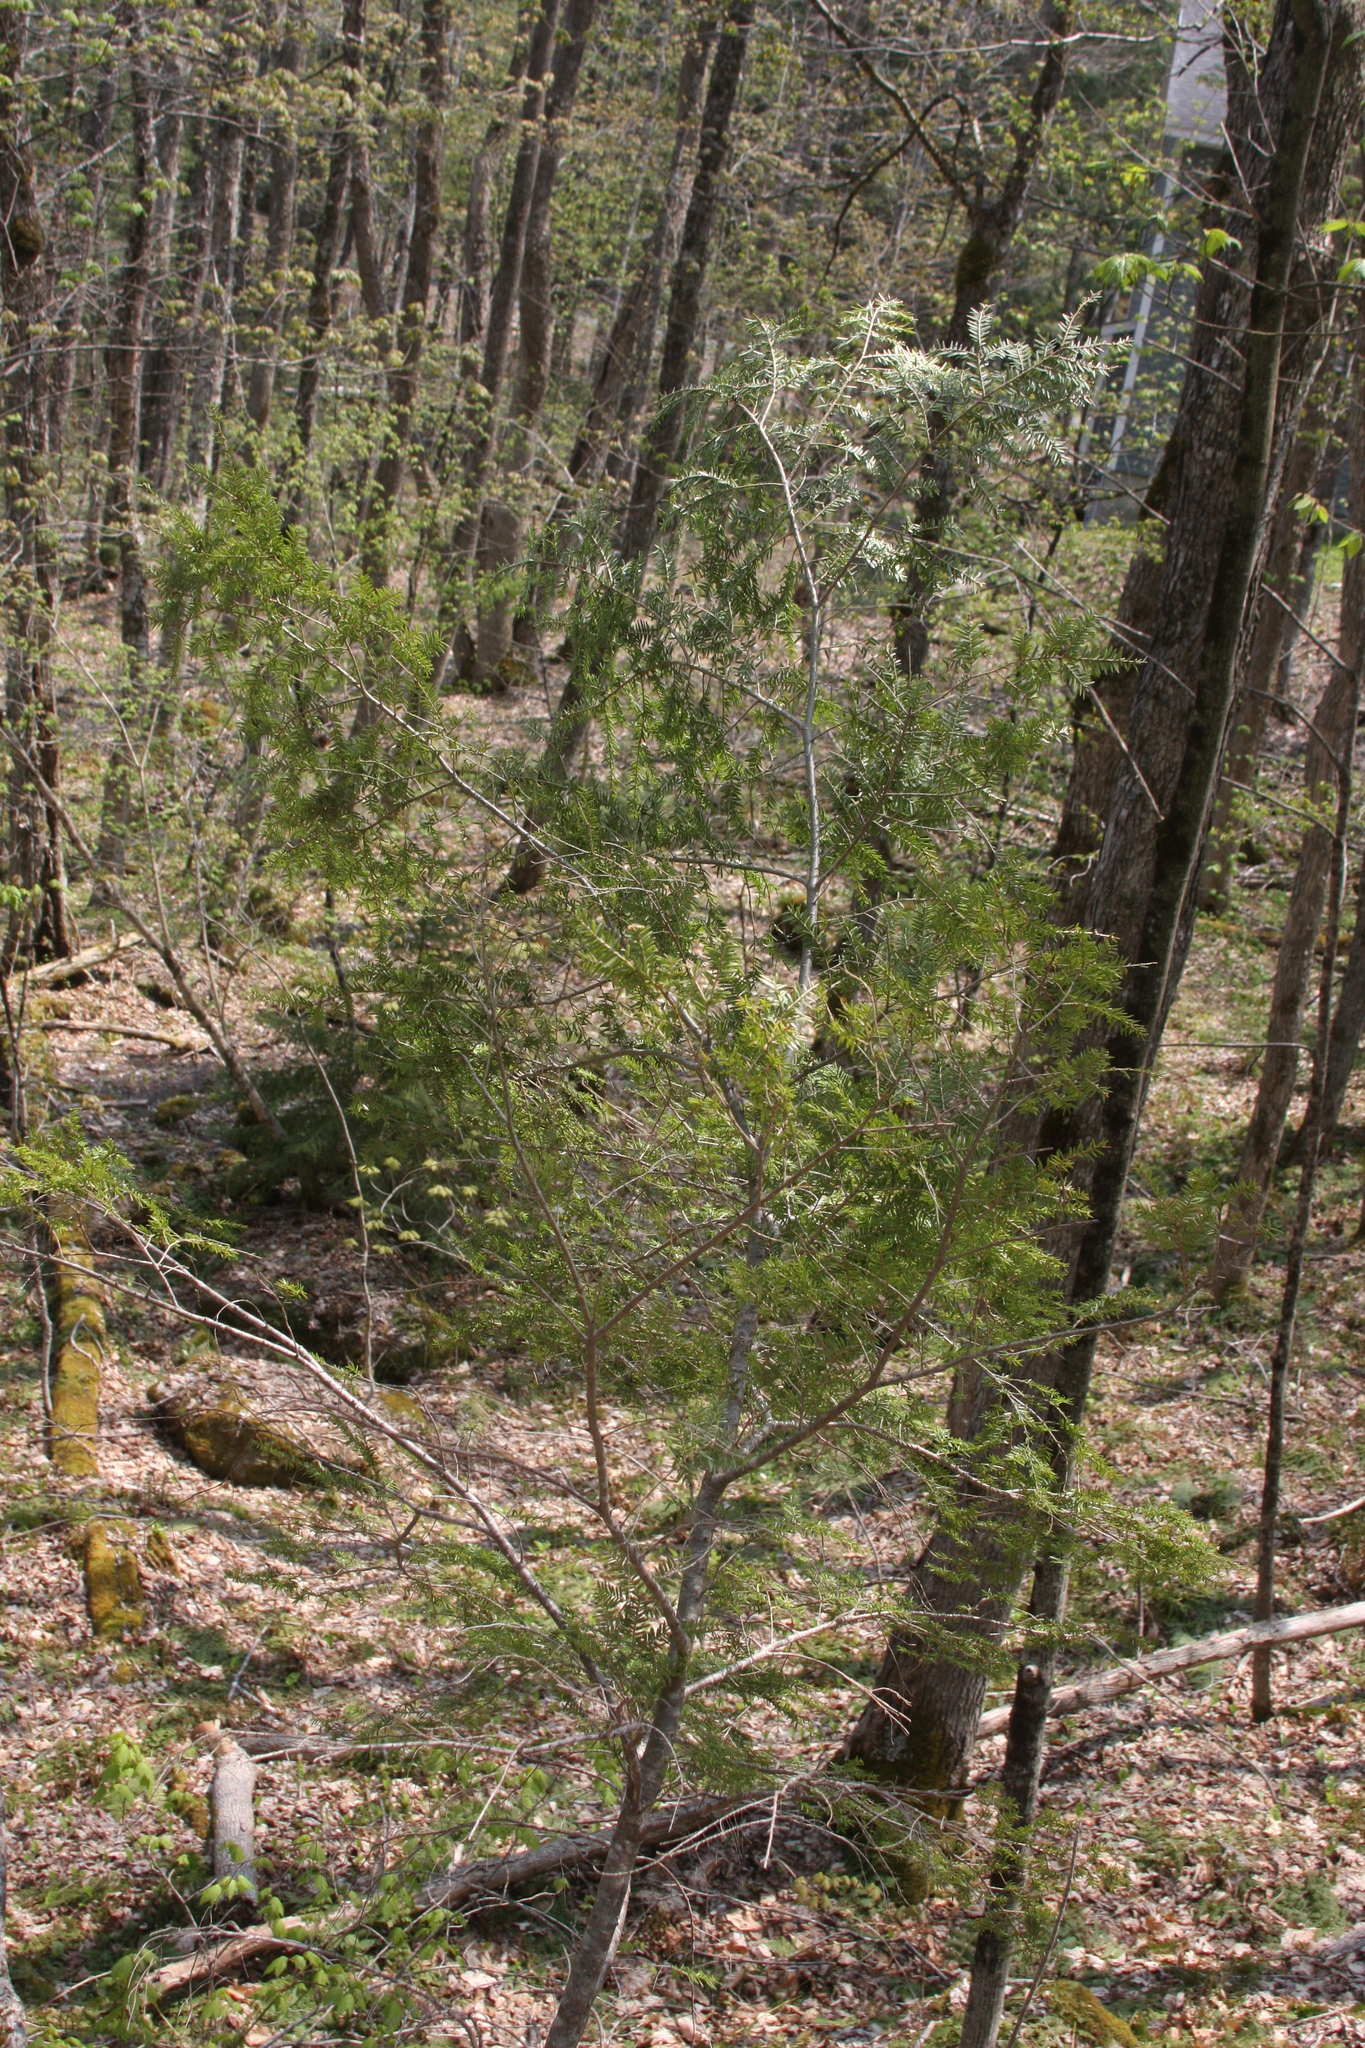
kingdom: Plantae
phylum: Tracheophyta
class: Pinopsida
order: Pinales
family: Pinaceae
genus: Tsuga
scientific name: Tsuga canadensis
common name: Eastern hemlock
